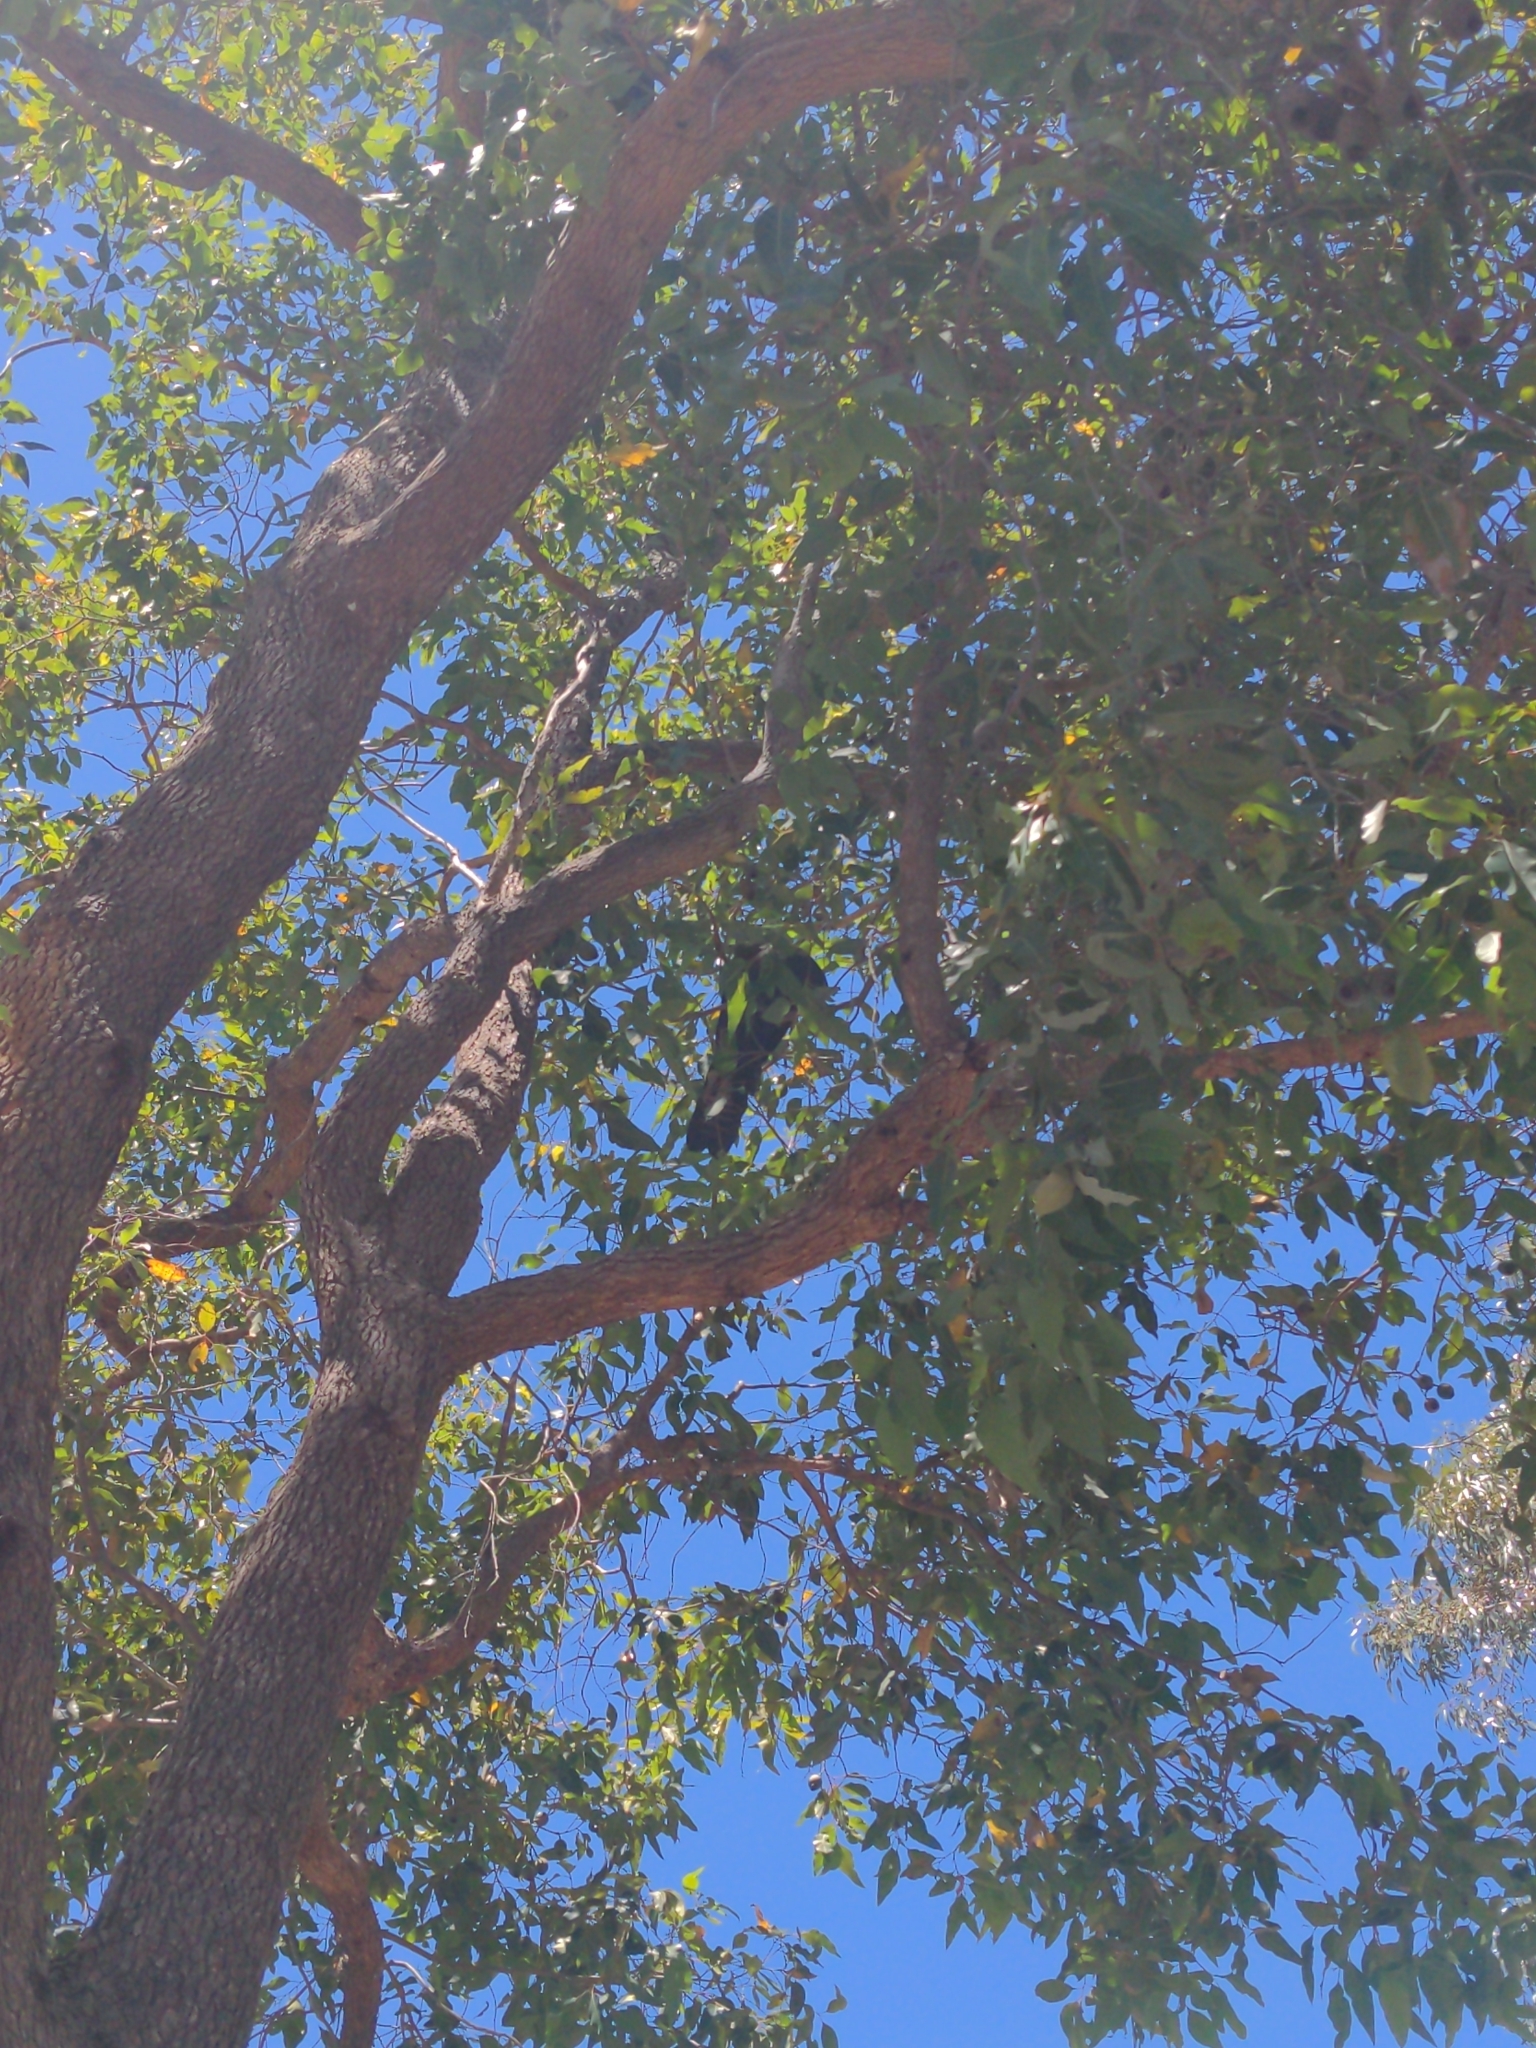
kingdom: Animalia
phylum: Chordata
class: Aves
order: Psittaciformes
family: Psittacidae
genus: Calyptorhynchus
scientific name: Calyptorhynchus banksii
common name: Red-tailed black cockatoo
